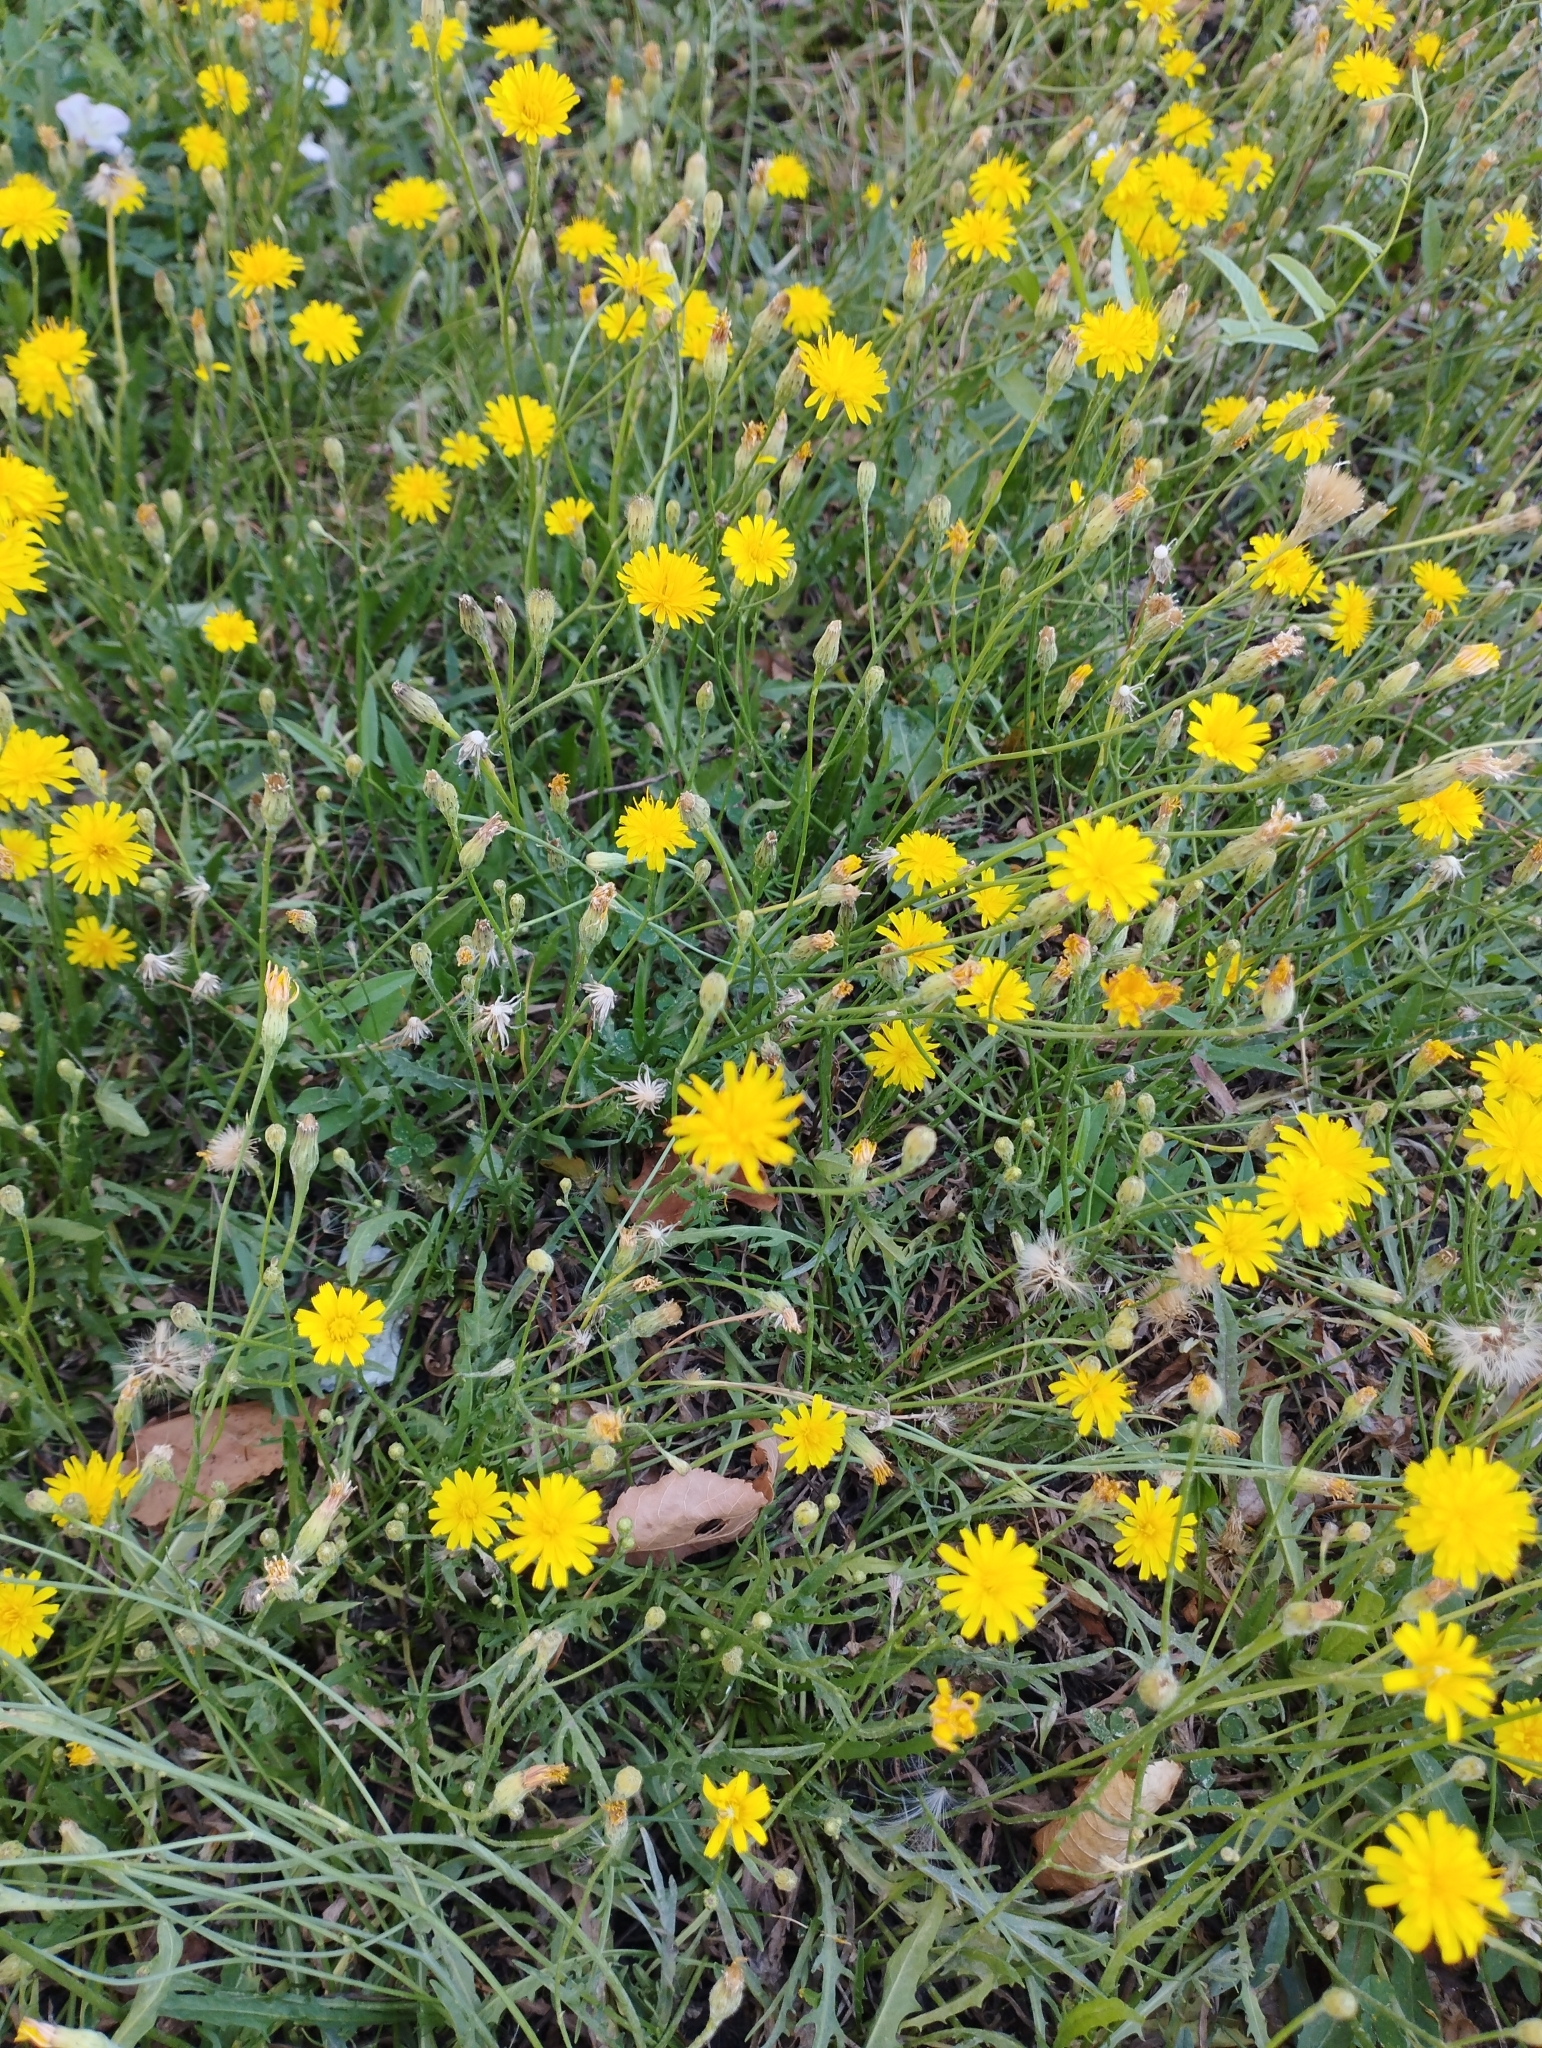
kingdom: Plantae
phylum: Tracheophyta
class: Magnoliopsida
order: Asterales
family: Asteraceae
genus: Scorzoneroides
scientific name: Scorzoneroides autumnalis
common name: Autumn hawkbit
